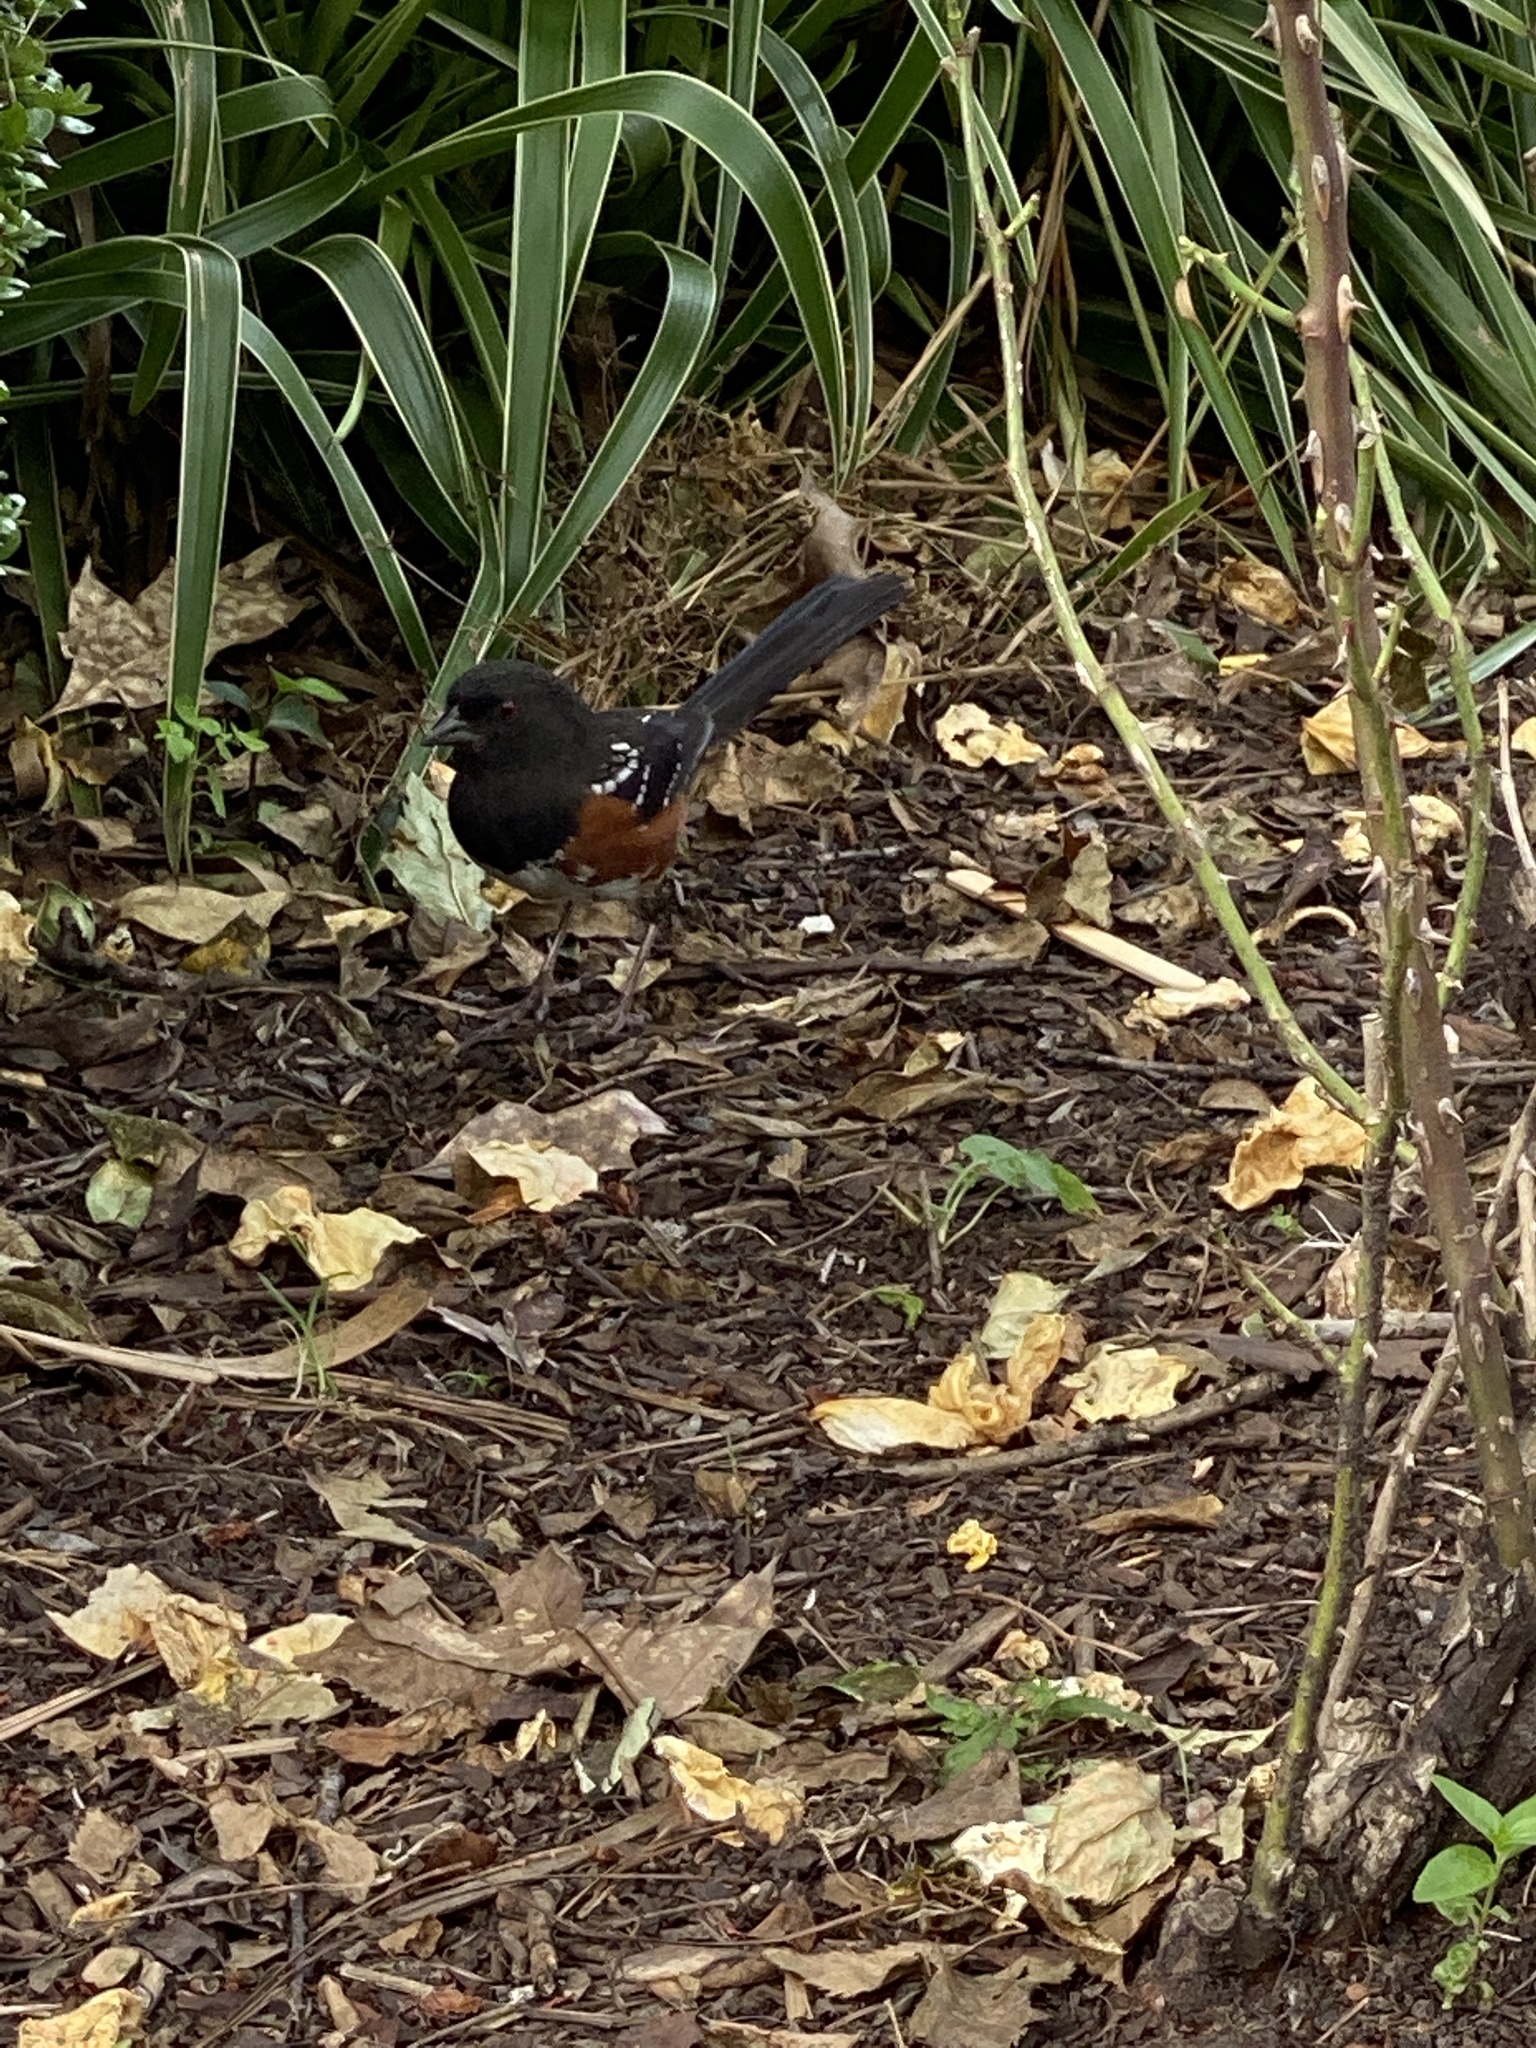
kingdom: Animalia
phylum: Chordata
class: Aves
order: Passeriformes
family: Passerellidae
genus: Pipilo
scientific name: Pipilo maculatus
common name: Spotted towhee
